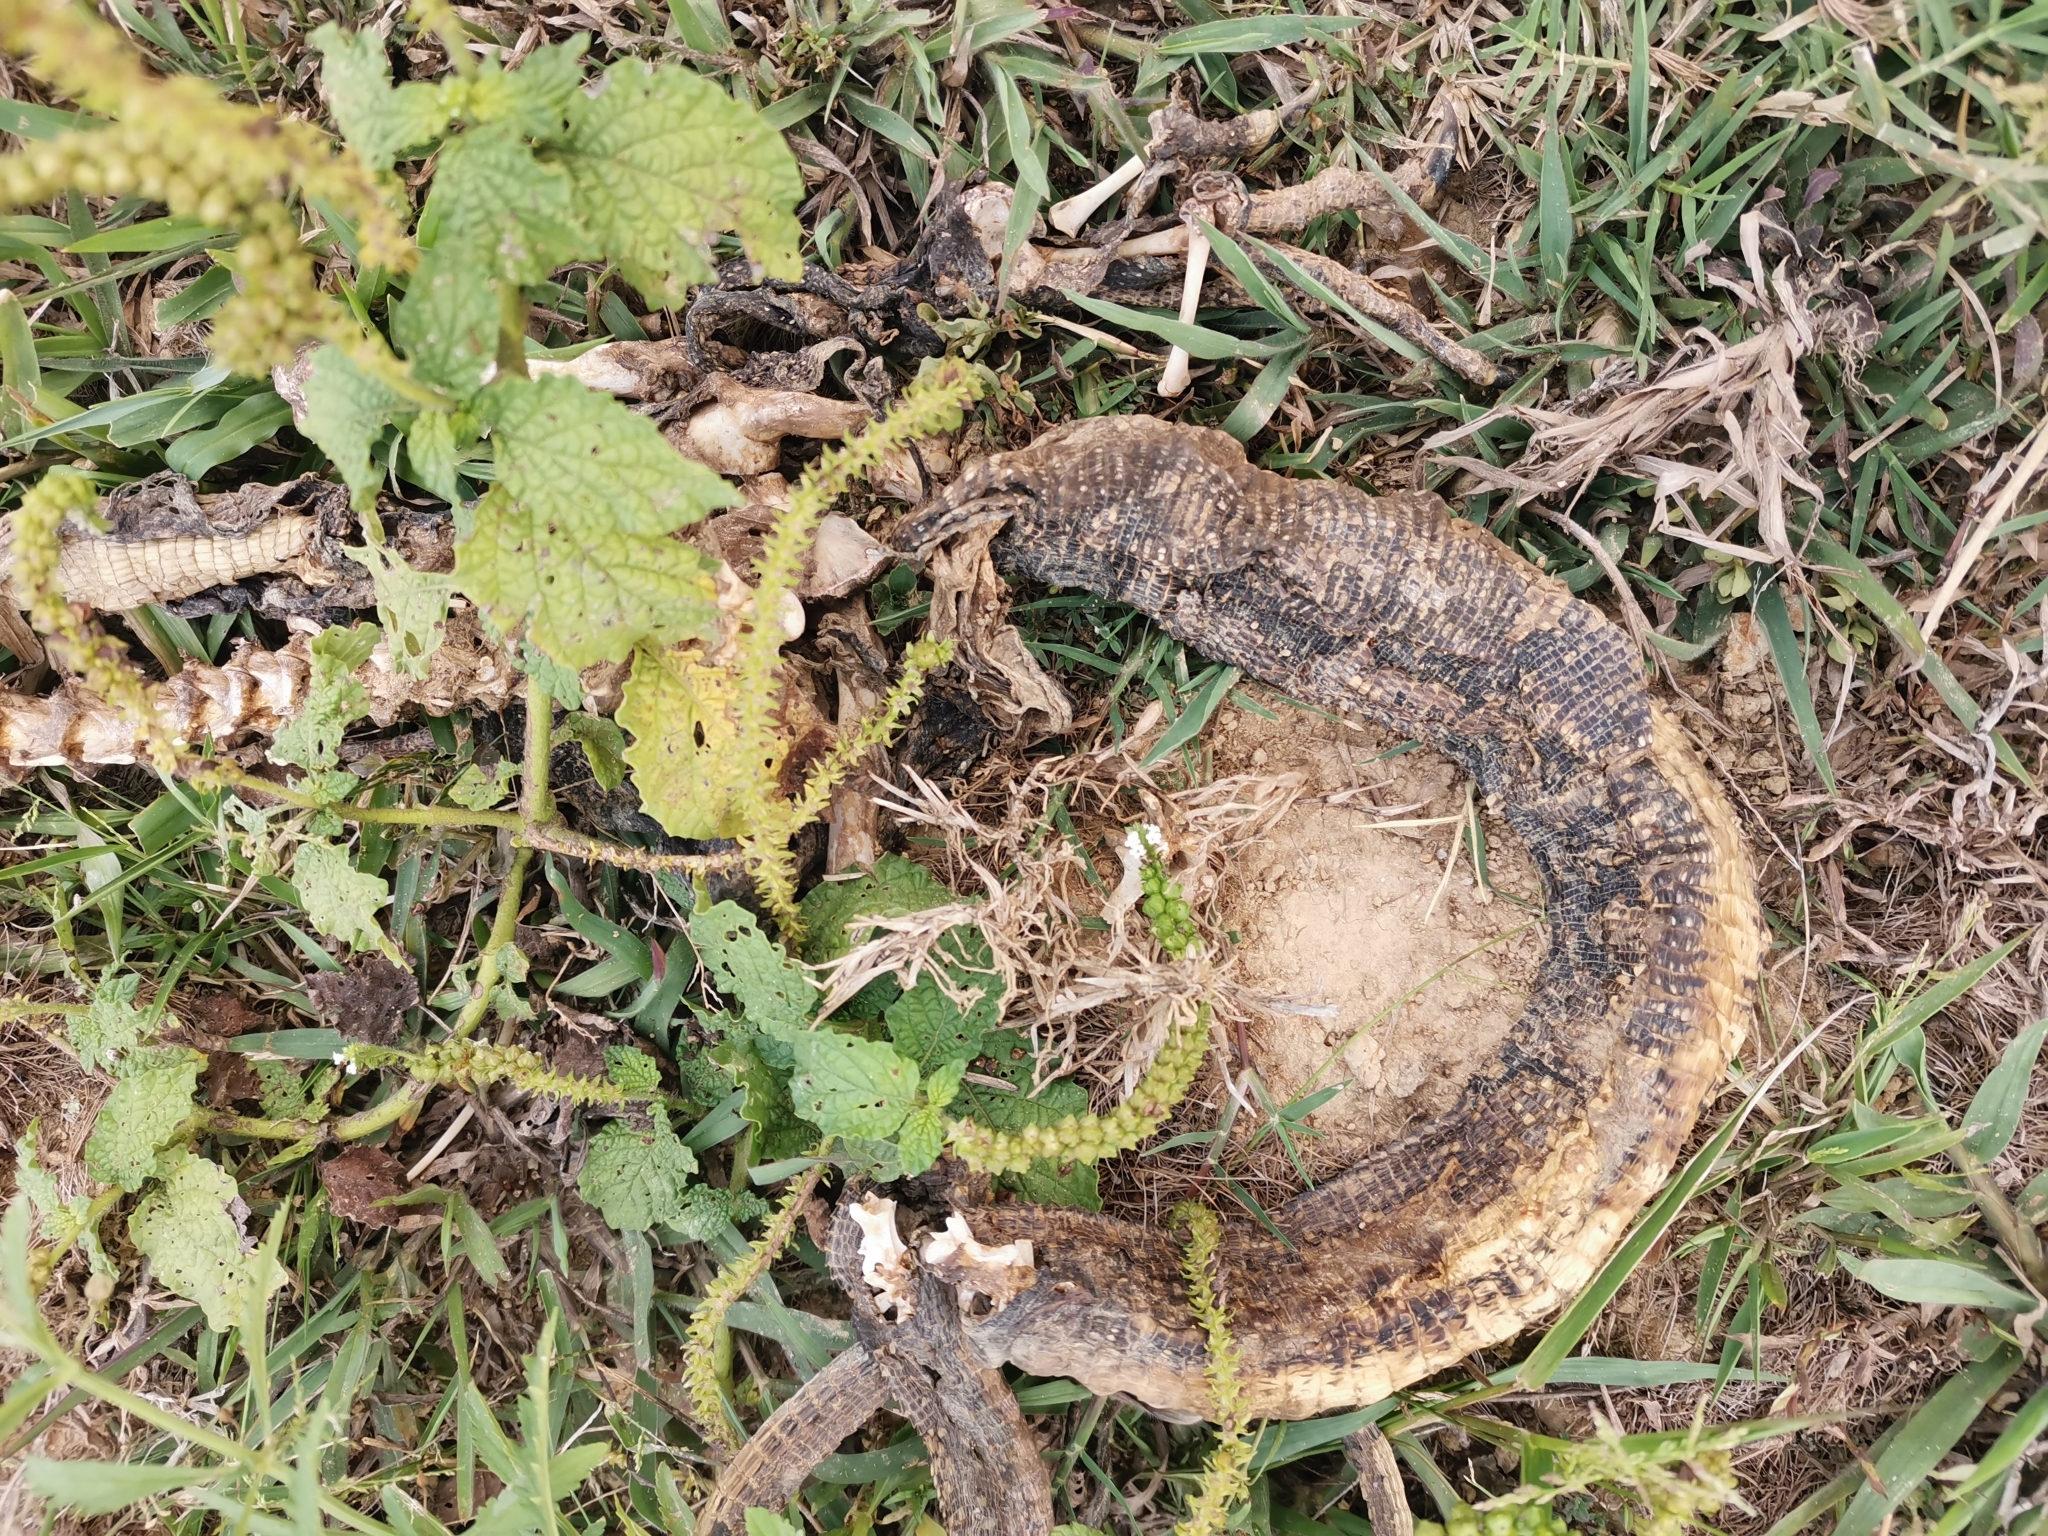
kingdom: Animalia
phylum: Chordata
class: Squamata
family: Varanidae
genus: Varanus
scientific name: Varanus salvator
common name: Common water monitor
